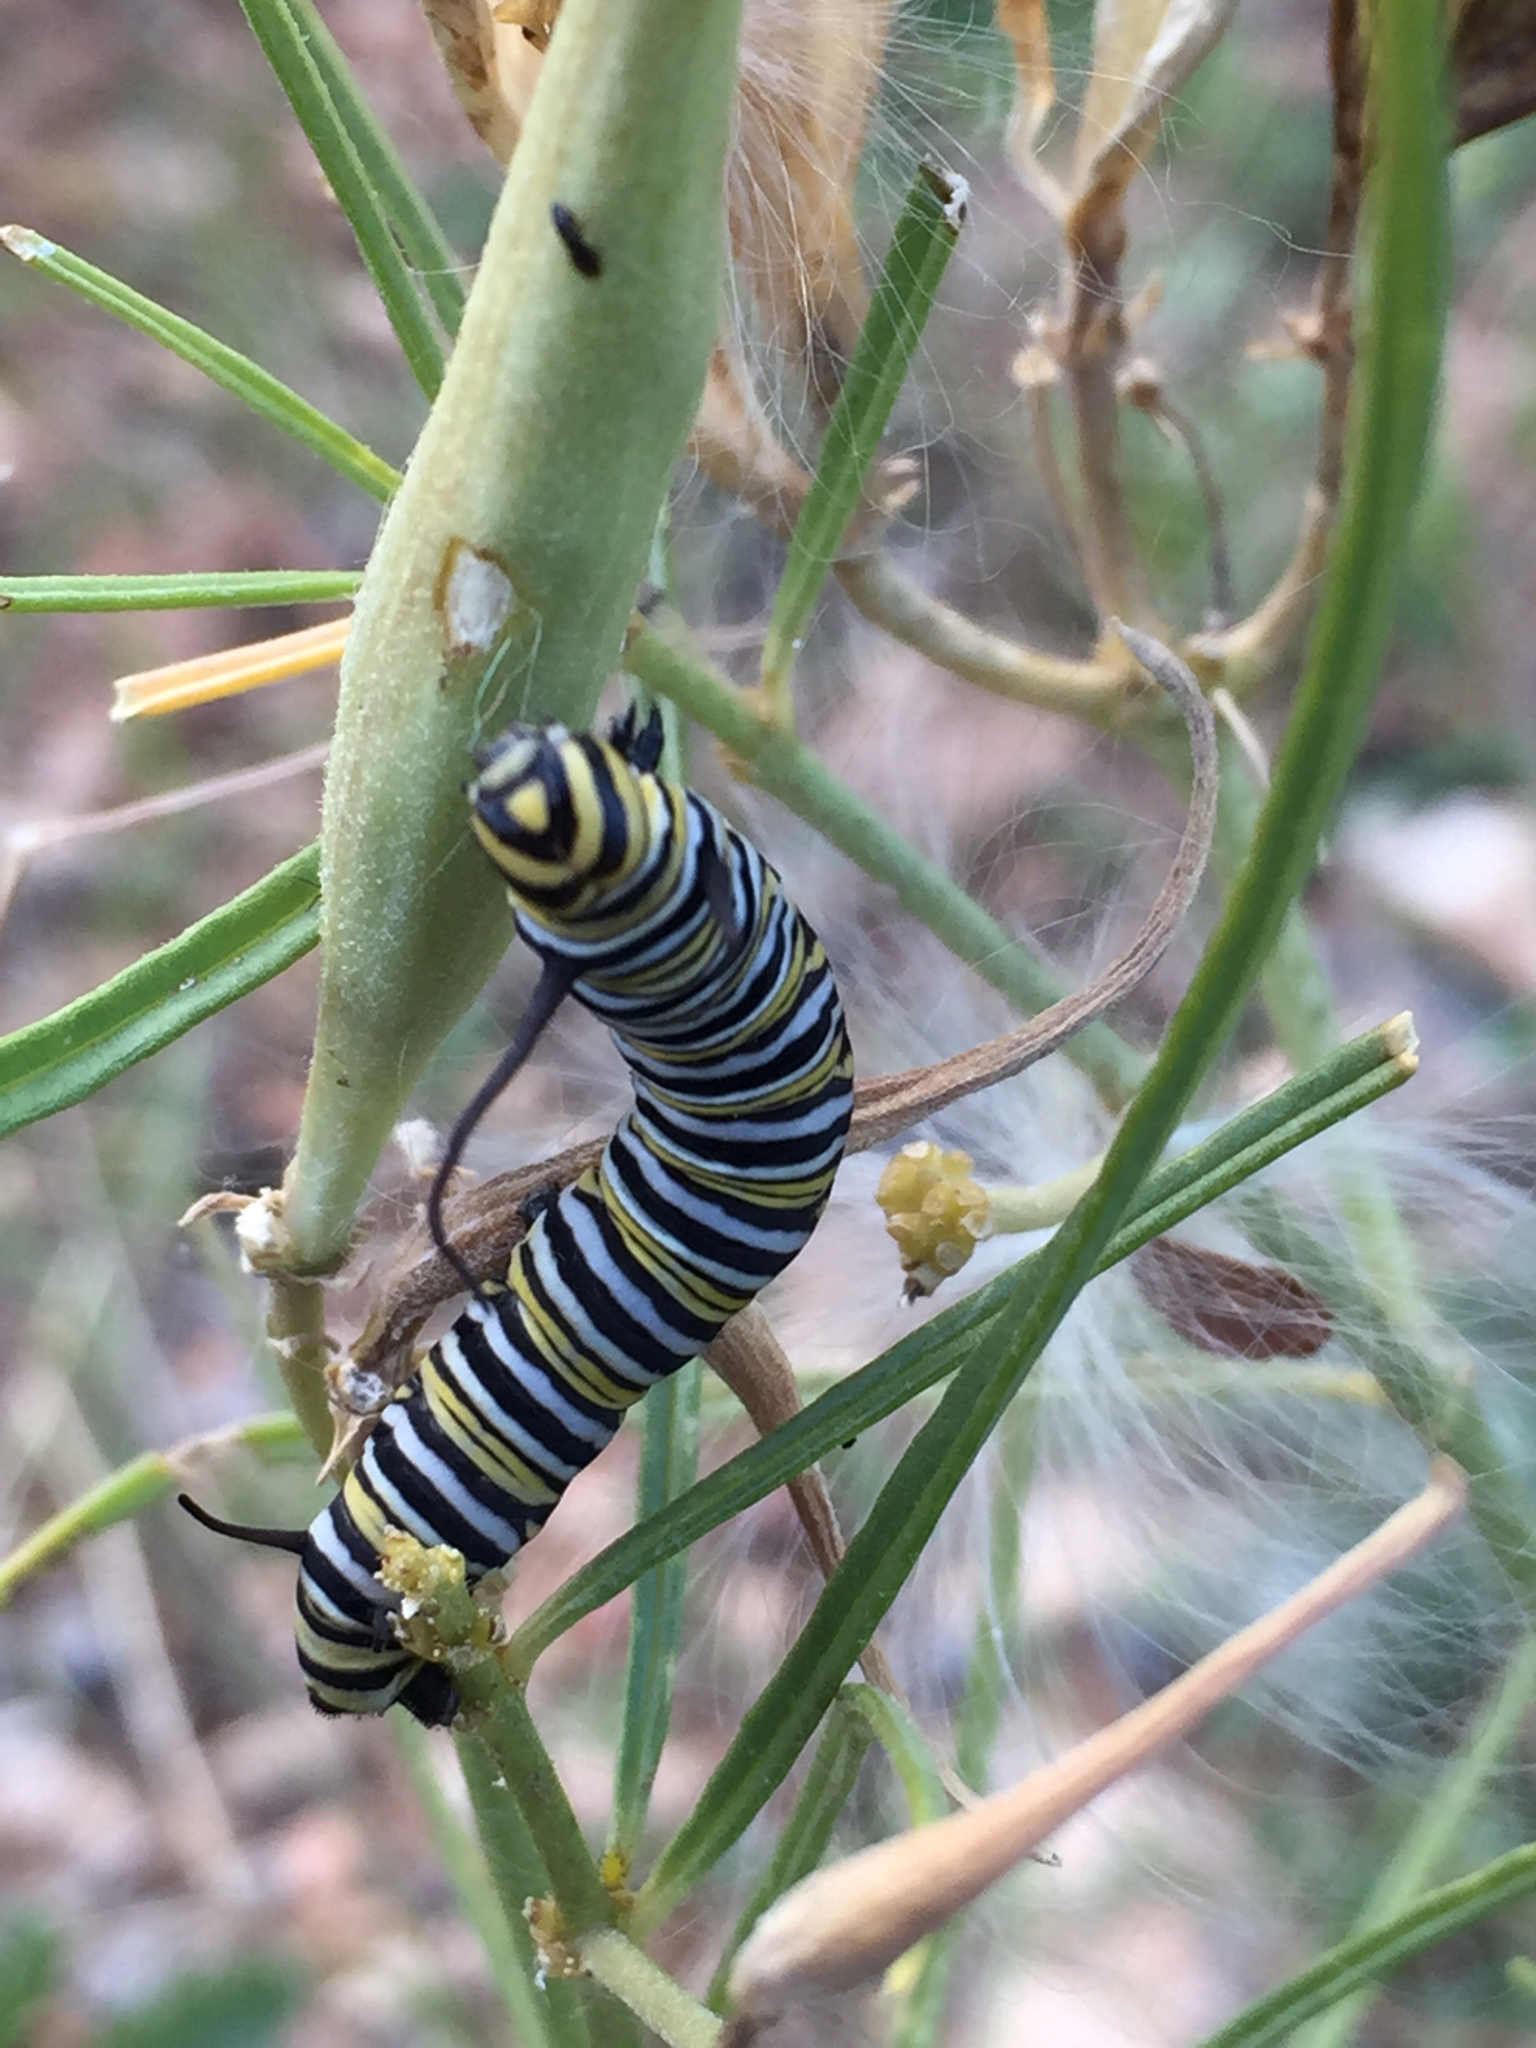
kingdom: Animalia
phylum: Arthropoda
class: Insecta
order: Lepidoptera
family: Nymphalidae
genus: Danaus
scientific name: Danaus plexippus
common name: Monarch
